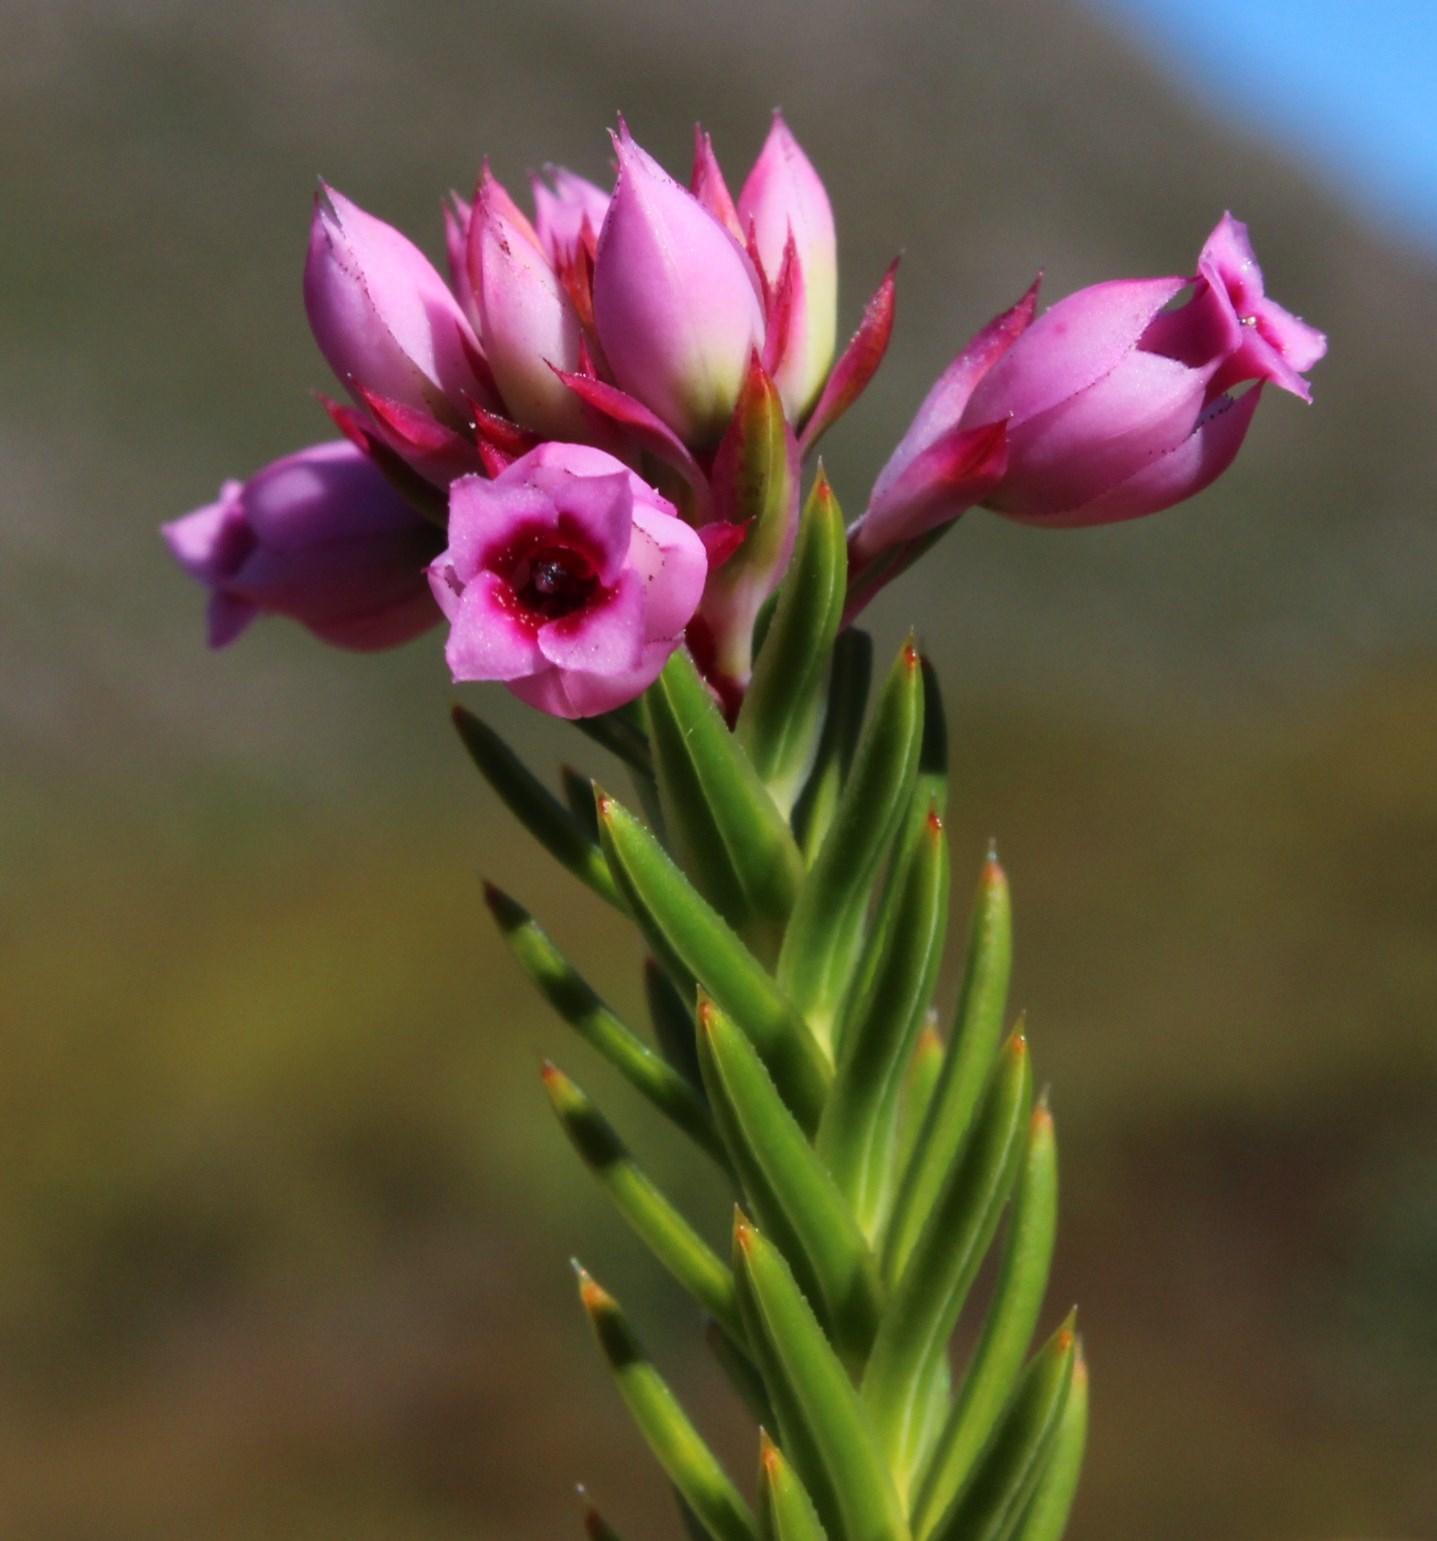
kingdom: Plantae
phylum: Tracheophyta
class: Magnoliopsida
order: Ericales
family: Ericaceae
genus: Erica
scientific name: Erica taxifolia
